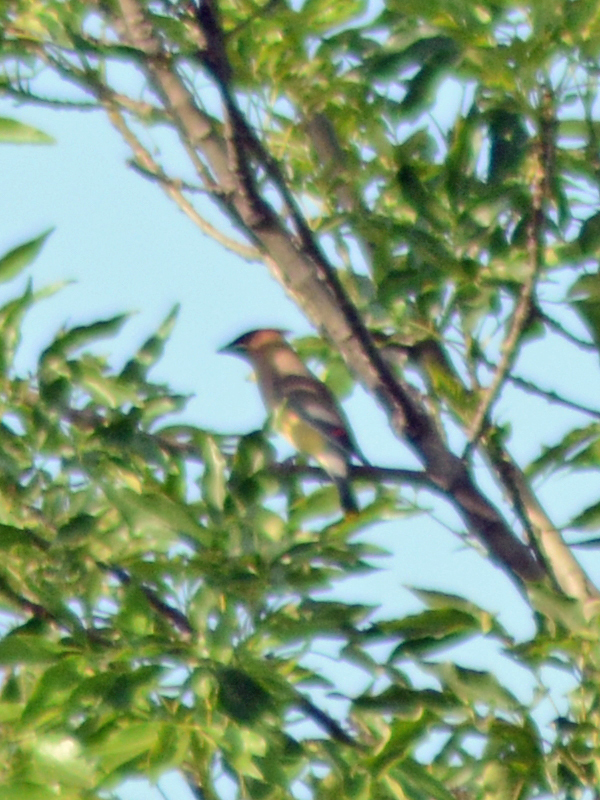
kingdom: Animalia
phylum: Chordata
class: Aves
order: Passeriformes
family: Bombycillidae
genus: Bombycilla
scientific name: Bombycilla cedrorum
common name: Cedar waxwing
